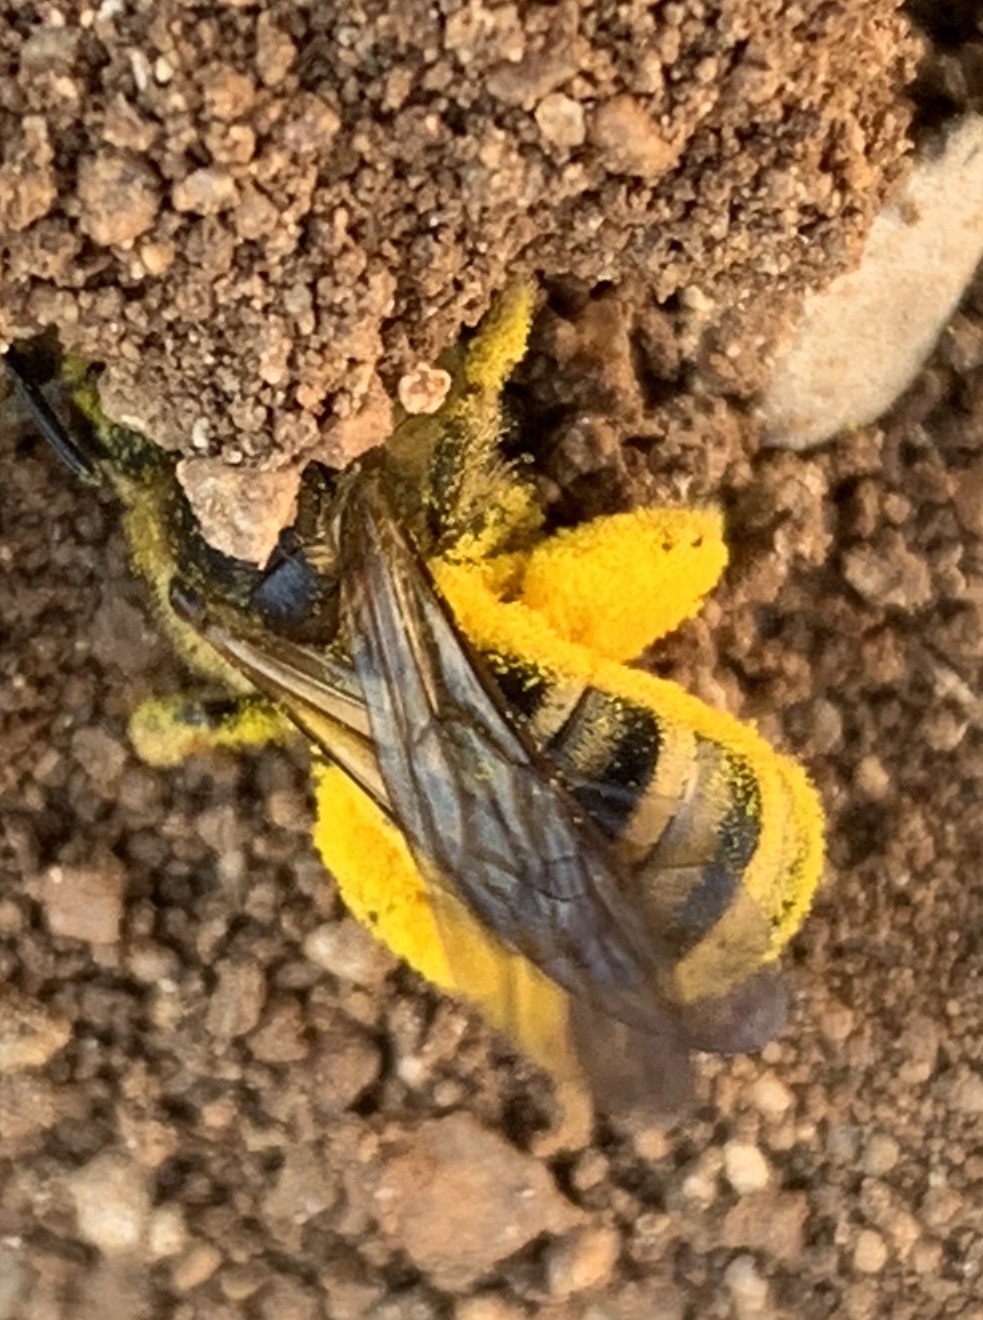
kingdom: Animalia
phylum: Arthropoda
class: Insecta
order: Hymenoptera
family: Halictidae
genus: Halictus
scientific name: Halictus scabiosae
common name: Great banded furrow bee
